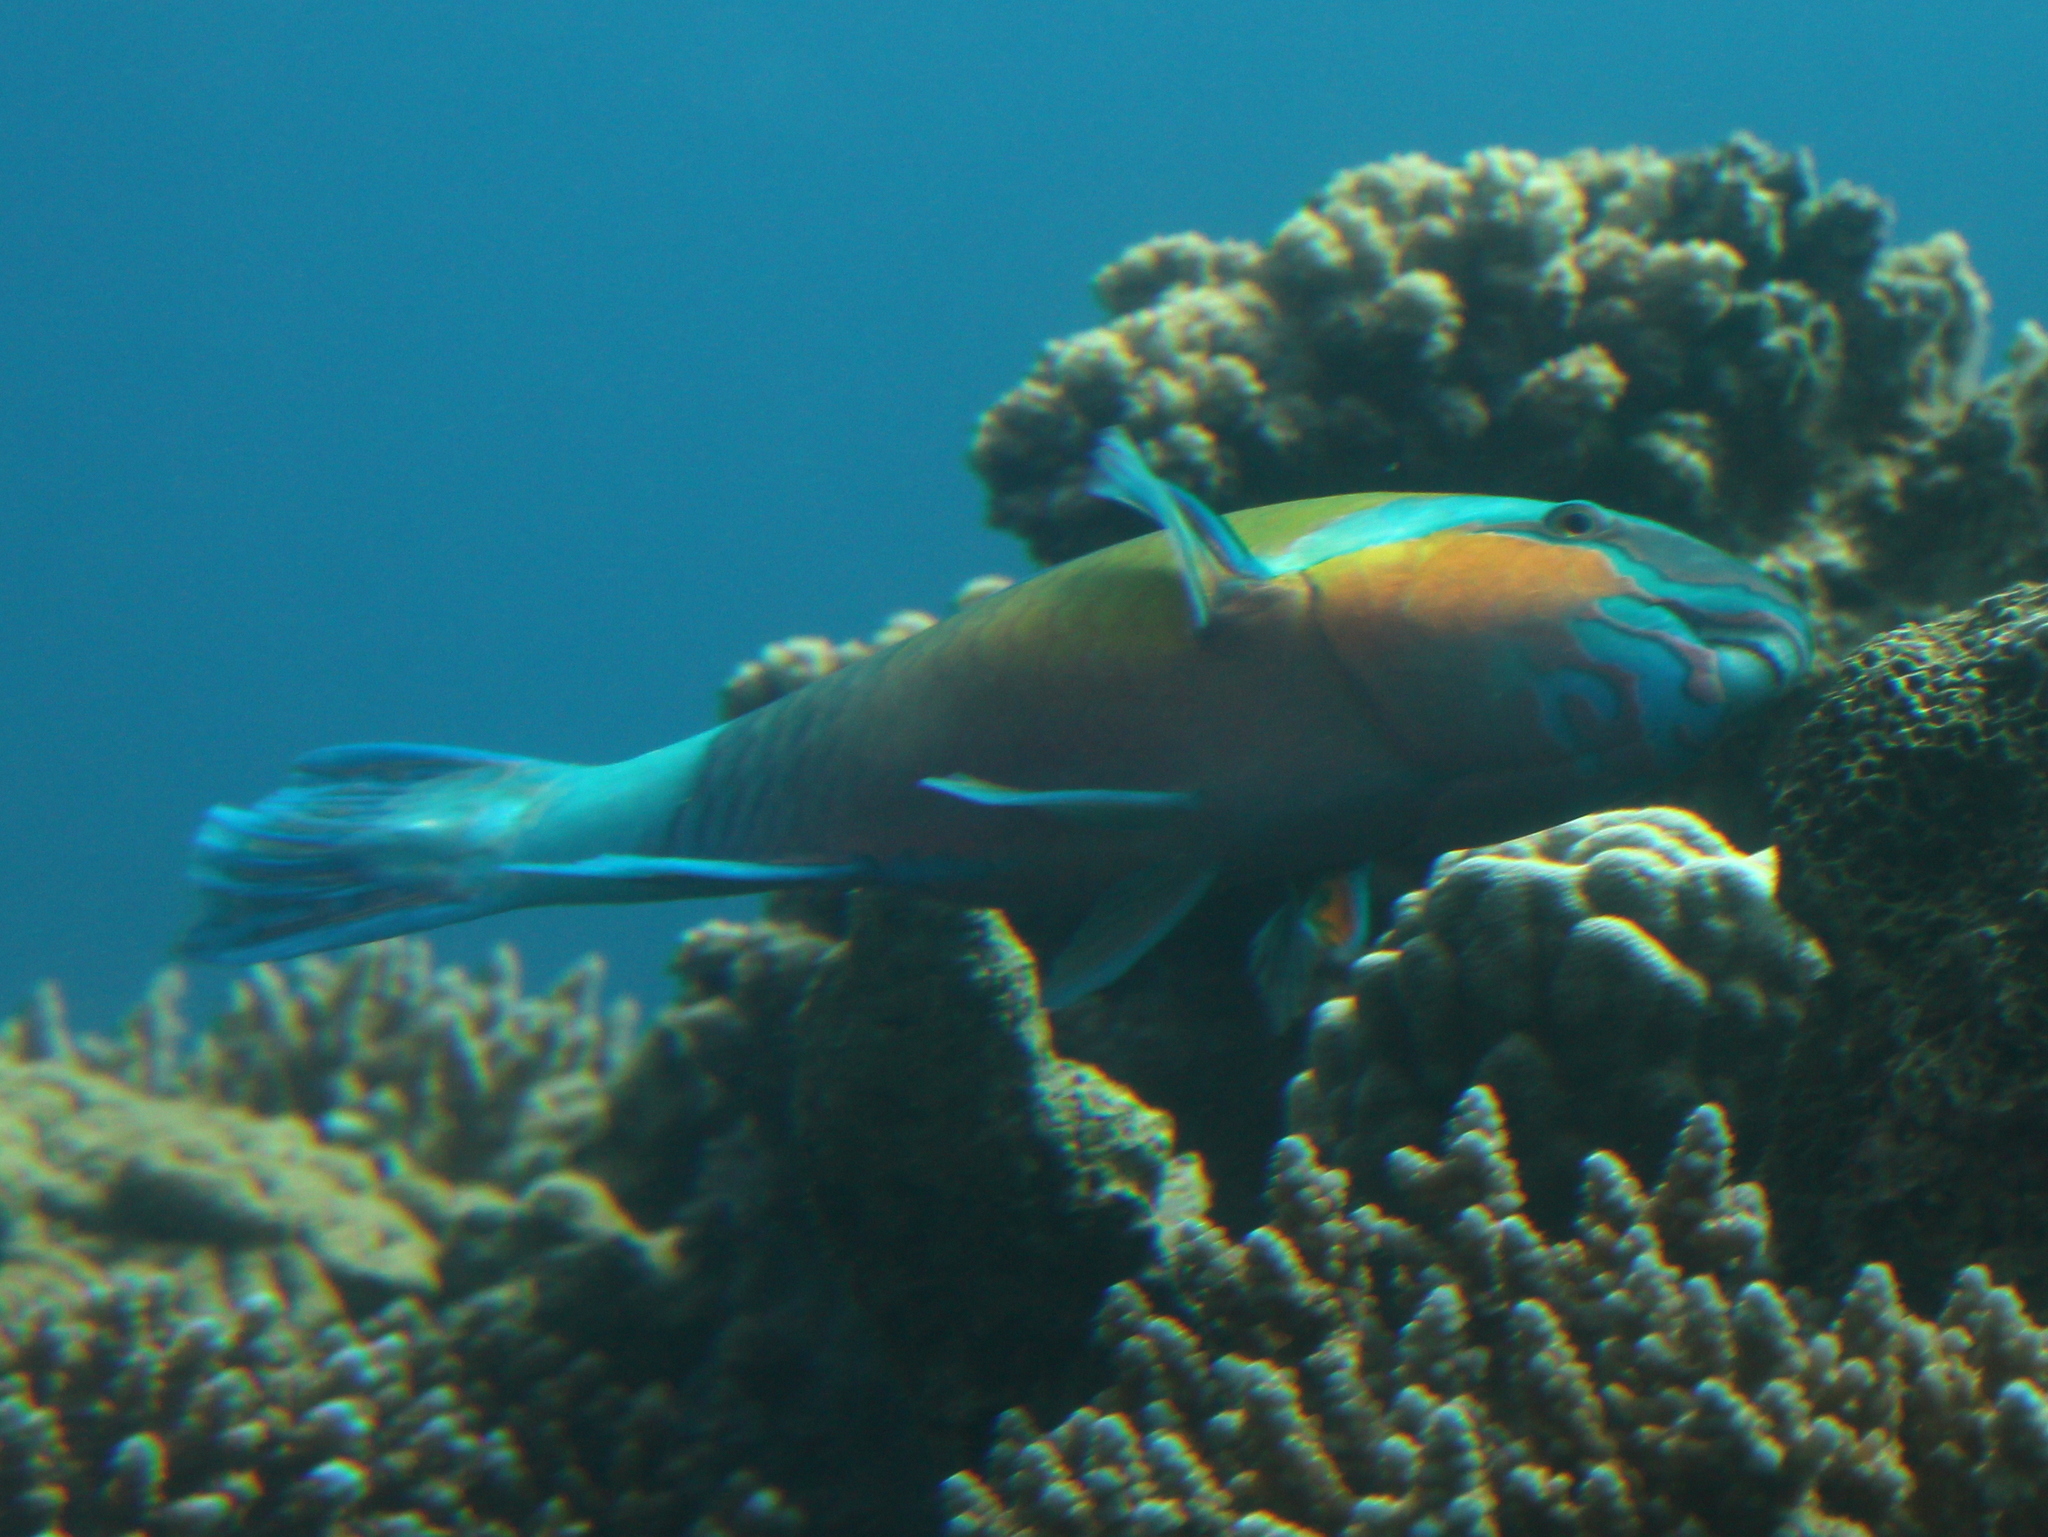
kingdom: Animalia
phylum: Chordata
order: Perciformes
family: Scaridae
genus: Chlorurus
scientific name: Chlorurus sordidus
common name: Bullethead parrotfish
